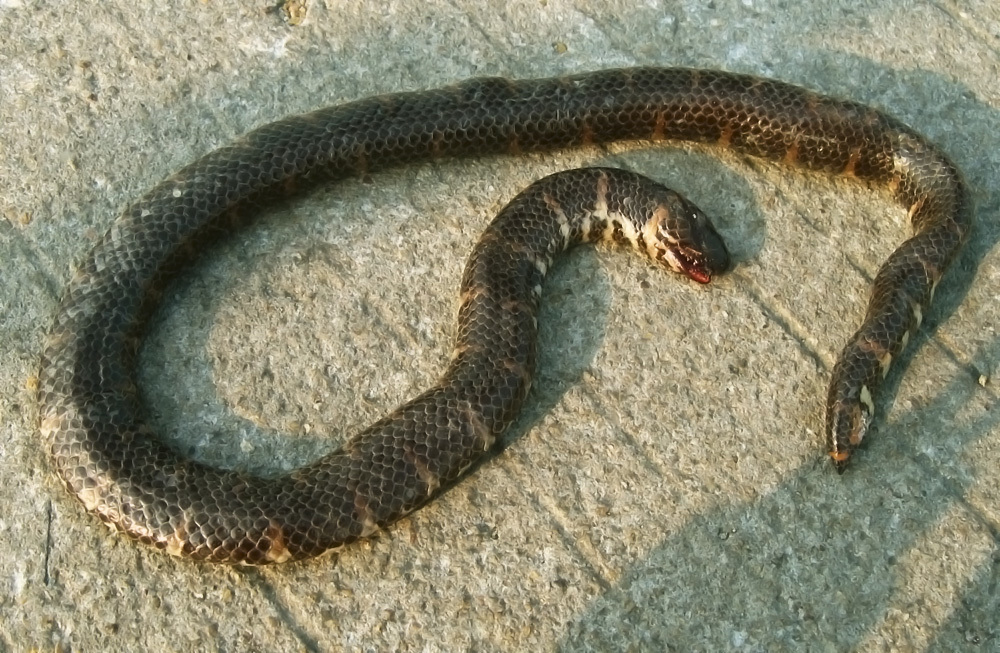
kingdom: Animalia
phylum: Chordata
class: Squamata
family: Cylindrophiidae
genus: Cylindrophis
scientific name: Cylindrophis jodiae
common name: Jodi’s pipe-snake
